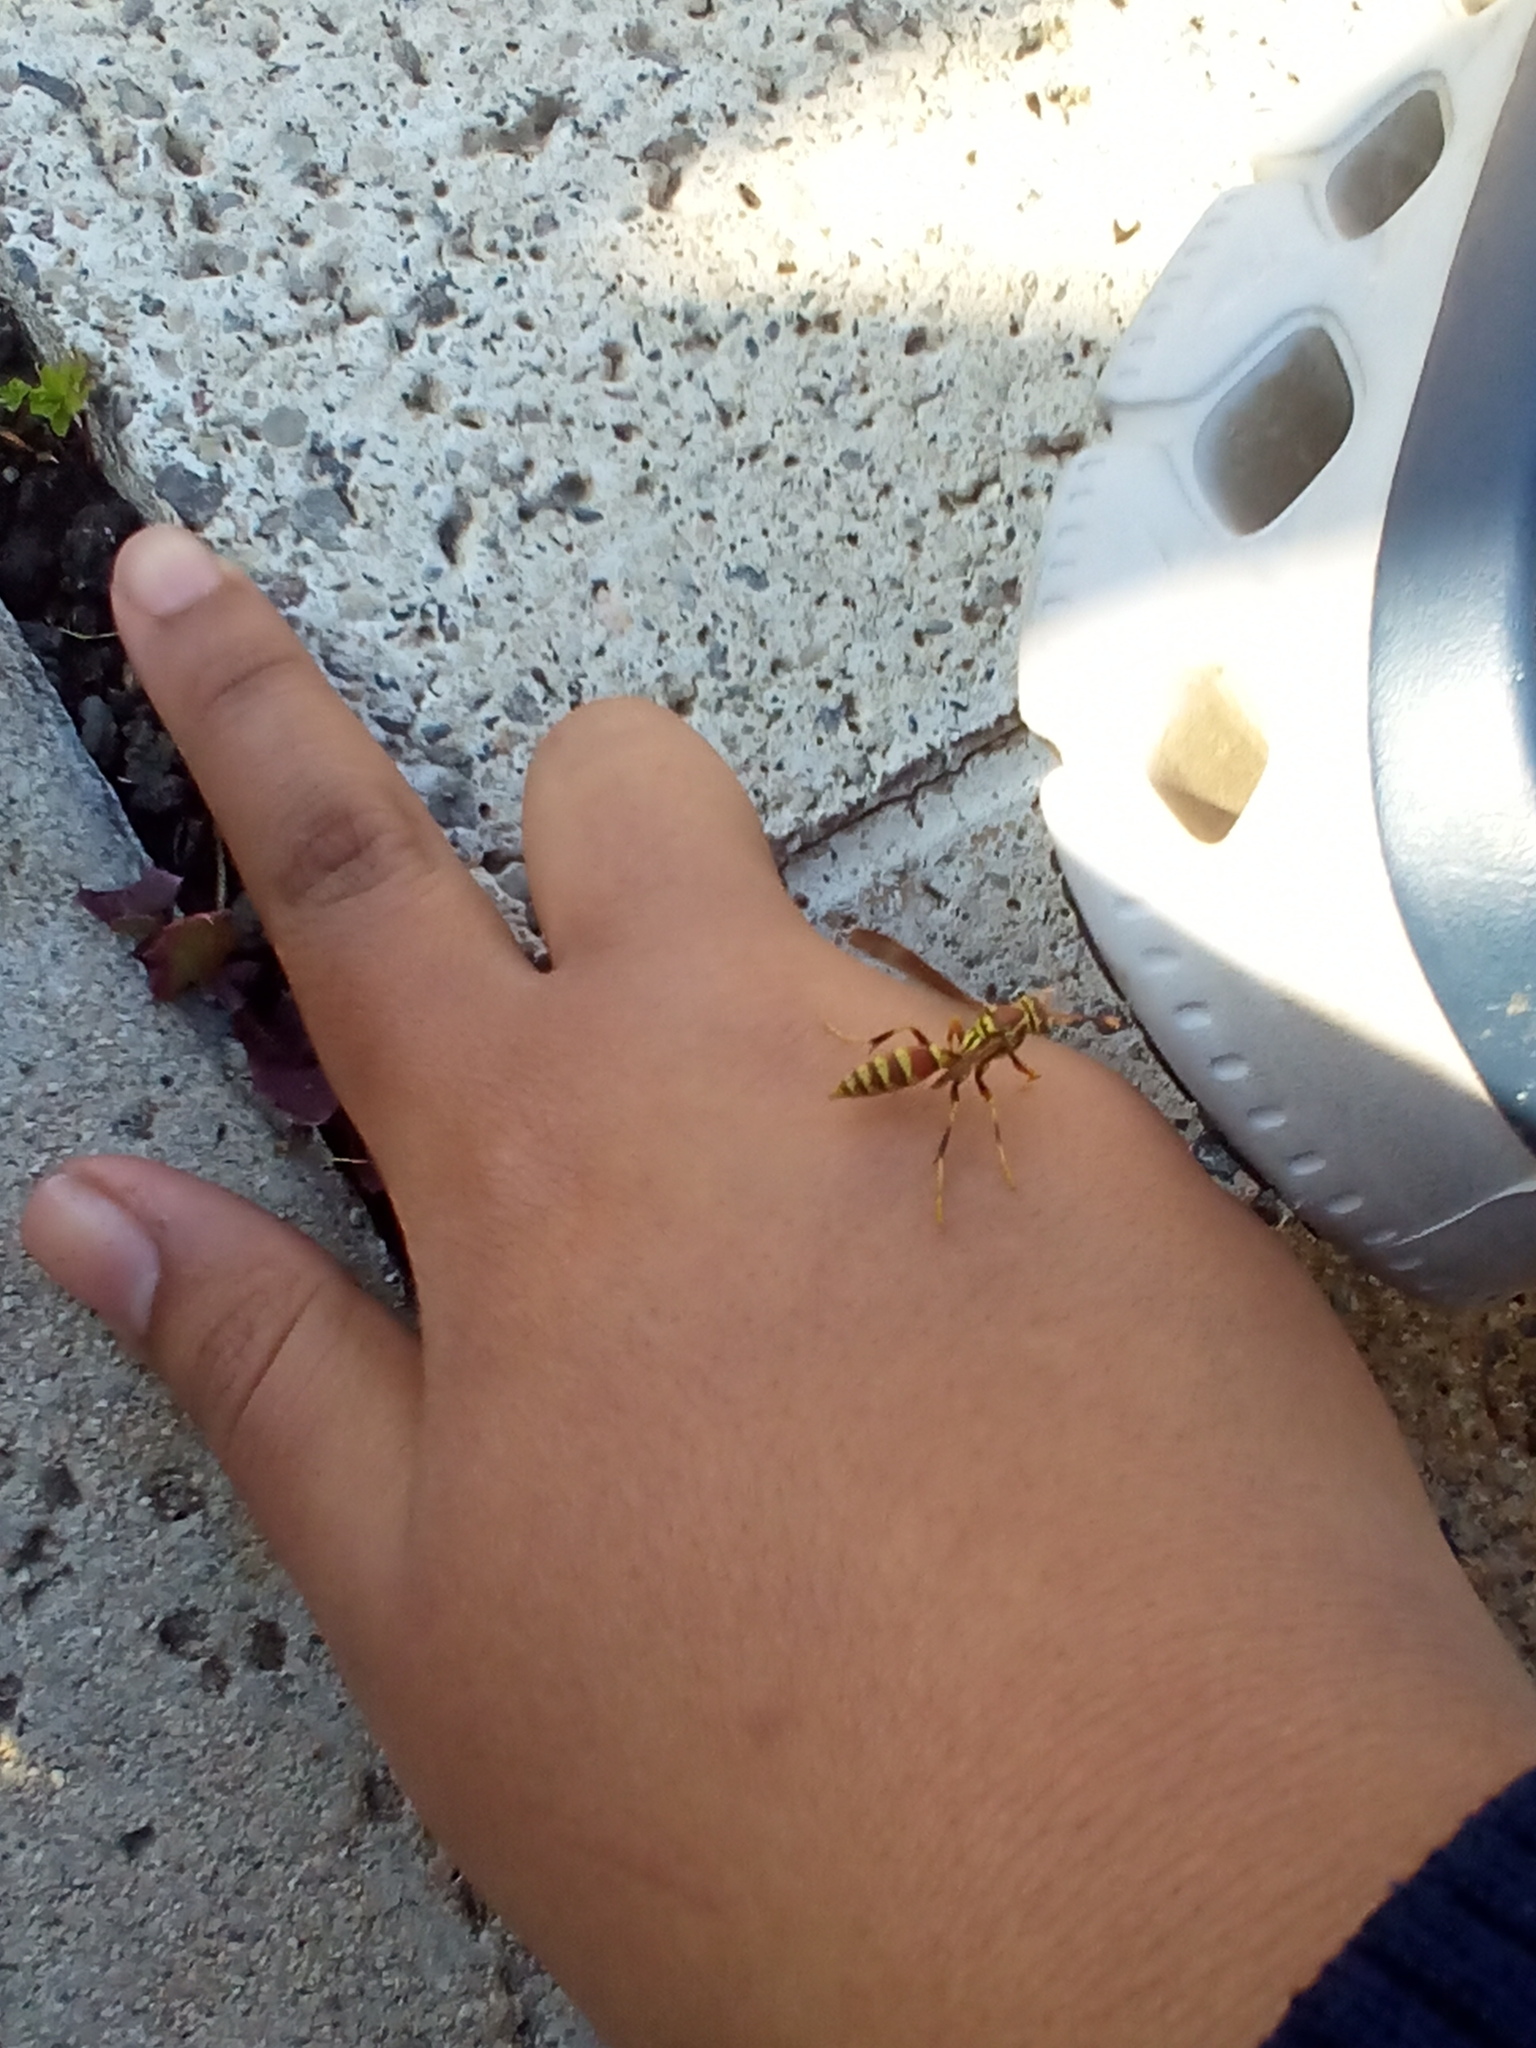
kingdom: Animalia
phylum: Arthropoda
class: Insecta
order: Hymenoptera
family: Eumenidae
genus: Polistes
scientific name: Polistes exclamans
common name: Paper wasp
